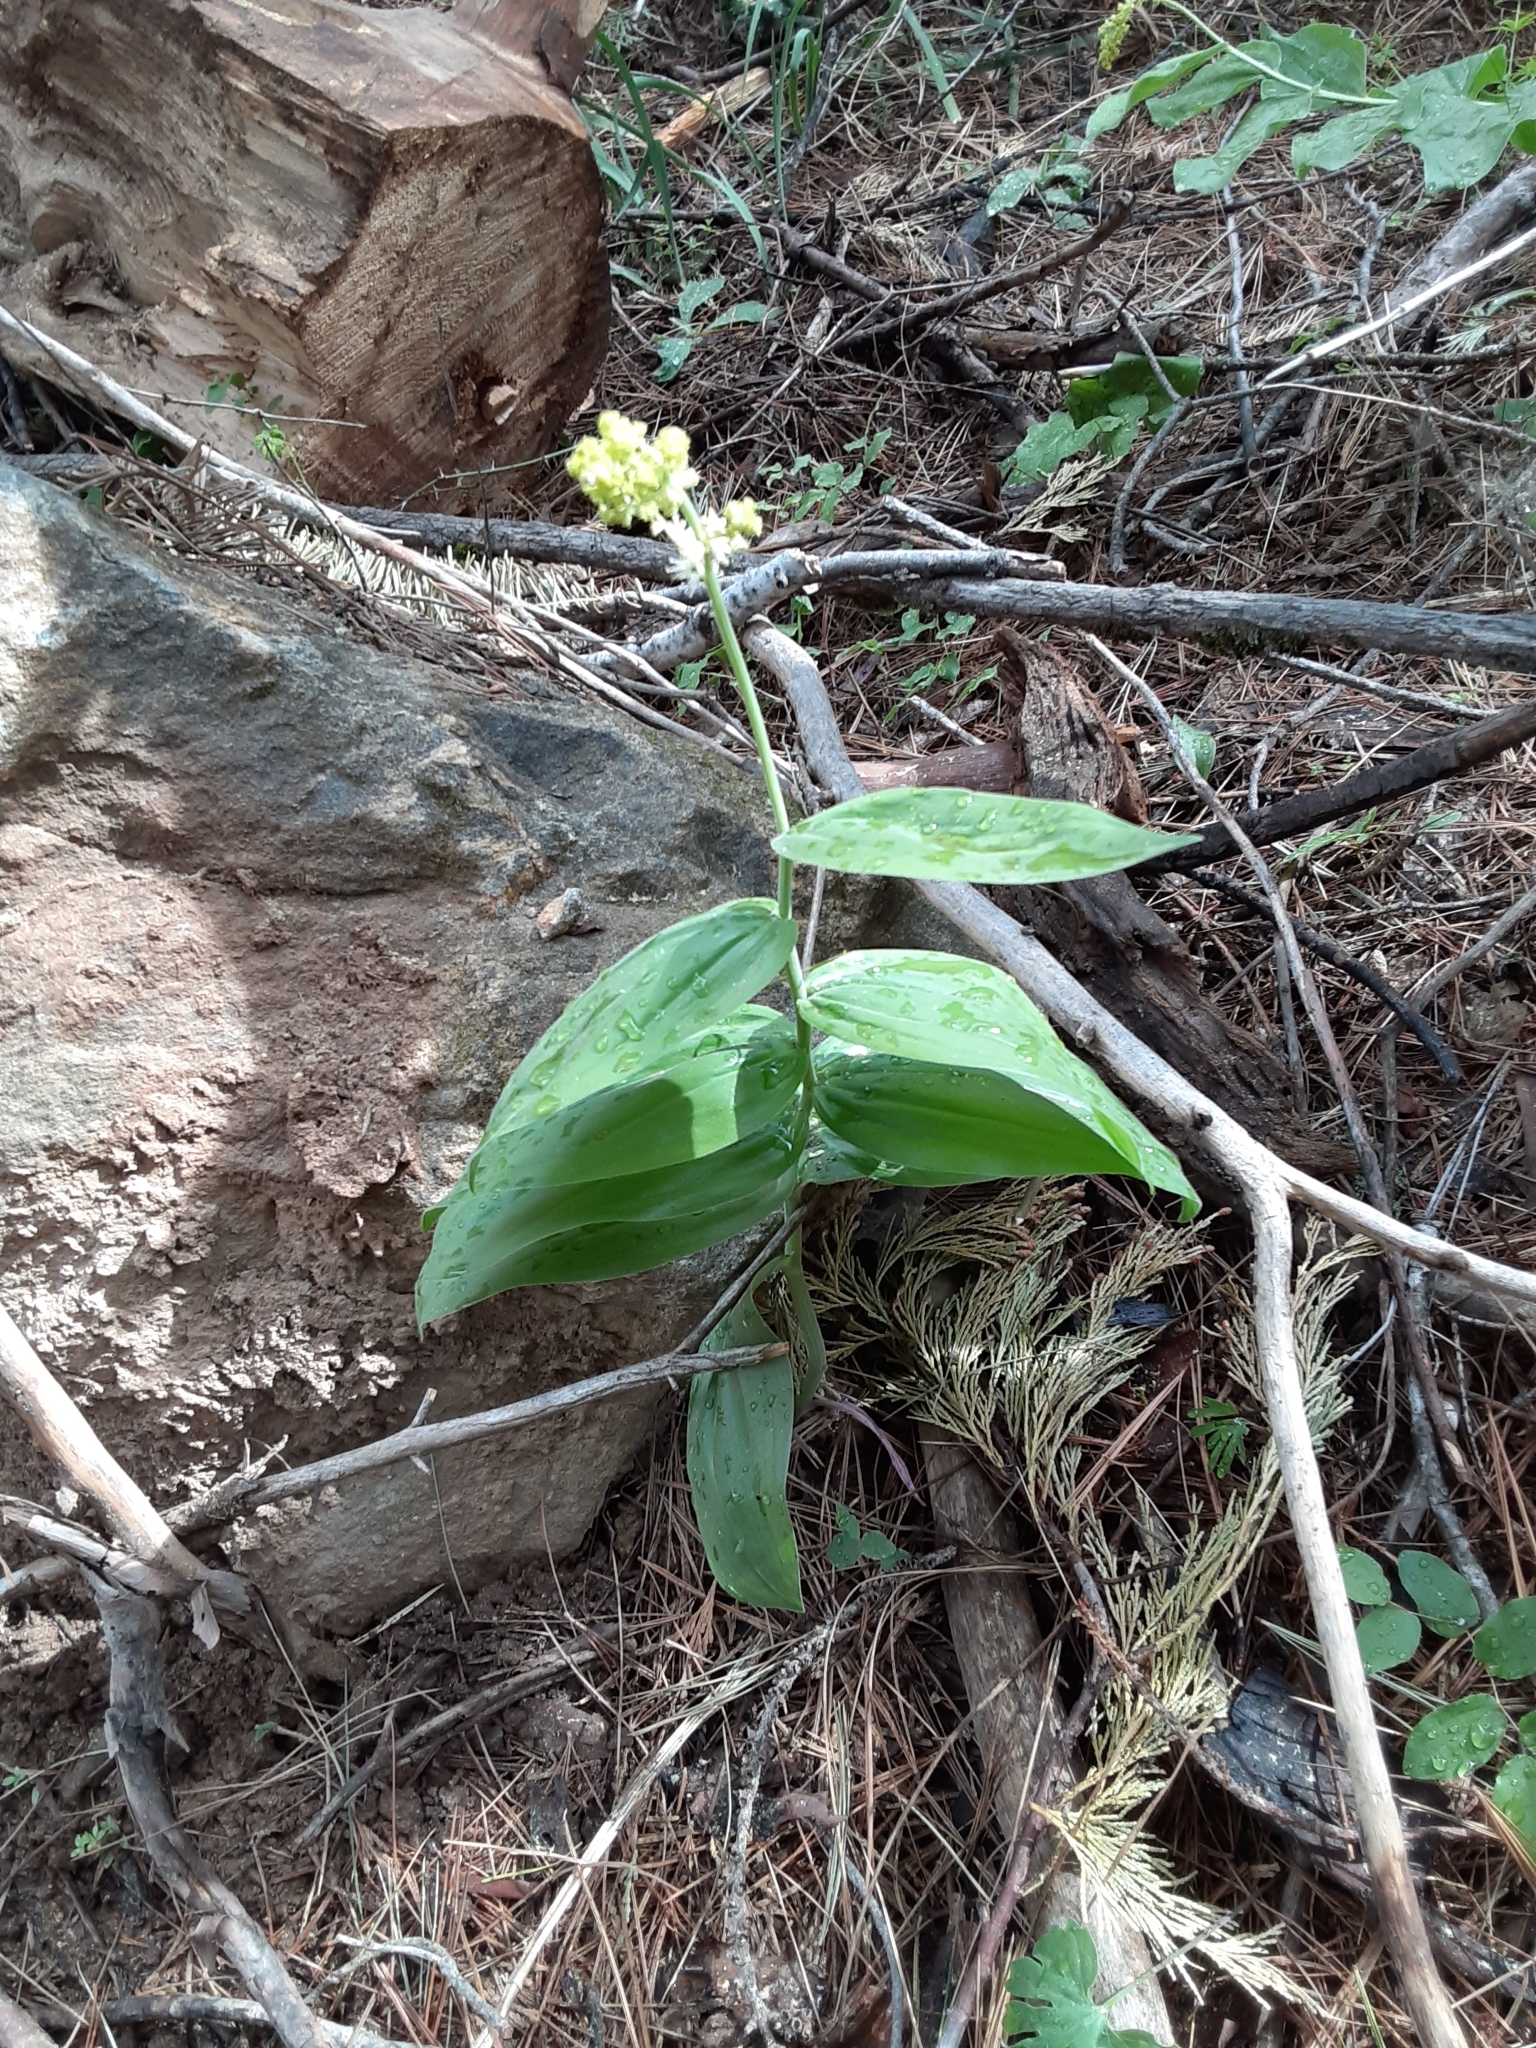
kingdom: Plantae
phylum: Tracheophyta
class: Liliopsida
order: Asparagales
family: Asparagaceae
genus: Maianthemum
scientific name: Maianthemum racemosum
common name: False spikenard
